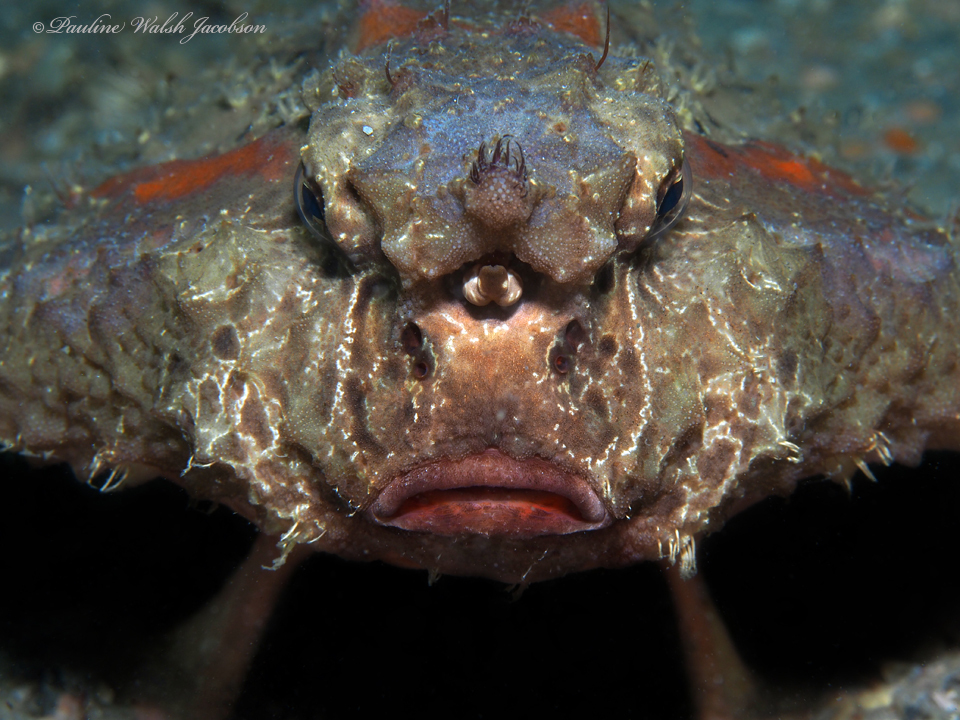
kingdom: Animalia
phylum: Chordata
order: Lophiiformes
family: Ogcocephalidae
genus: Ogcocephalus
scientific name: Ogcocephalus nasutus
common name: Shortnose batfish
